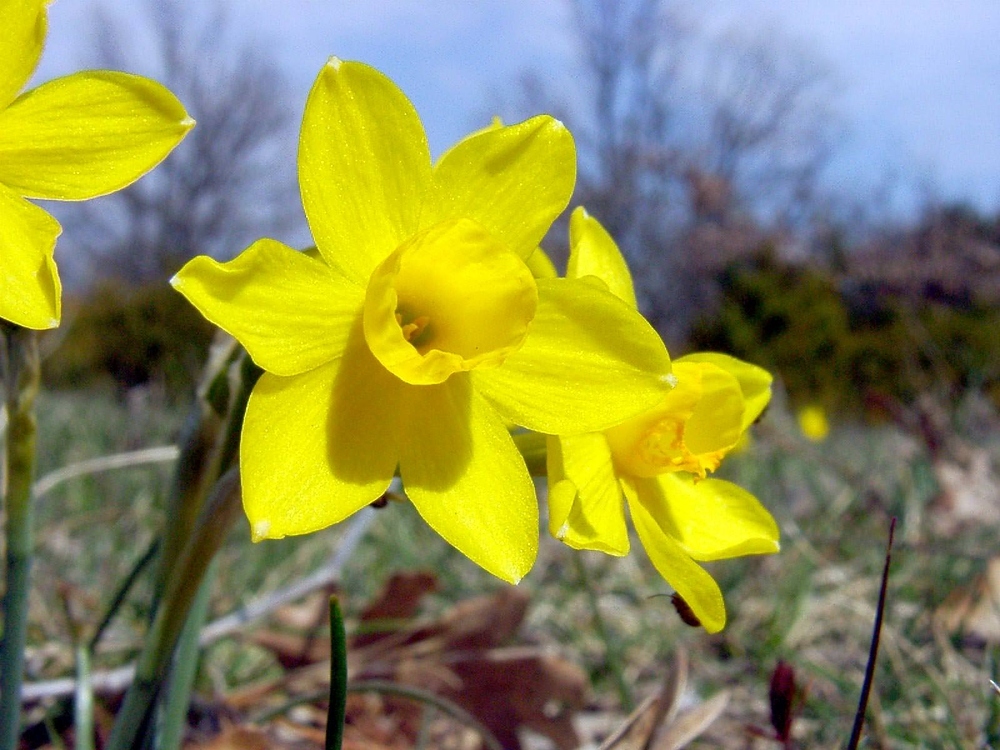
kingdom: Plantae
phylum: Tracheophyta
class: Liliopsida
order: Asparagales
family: Amaryllidaceae
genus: Narcissus
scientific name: Narcissus assoanus
